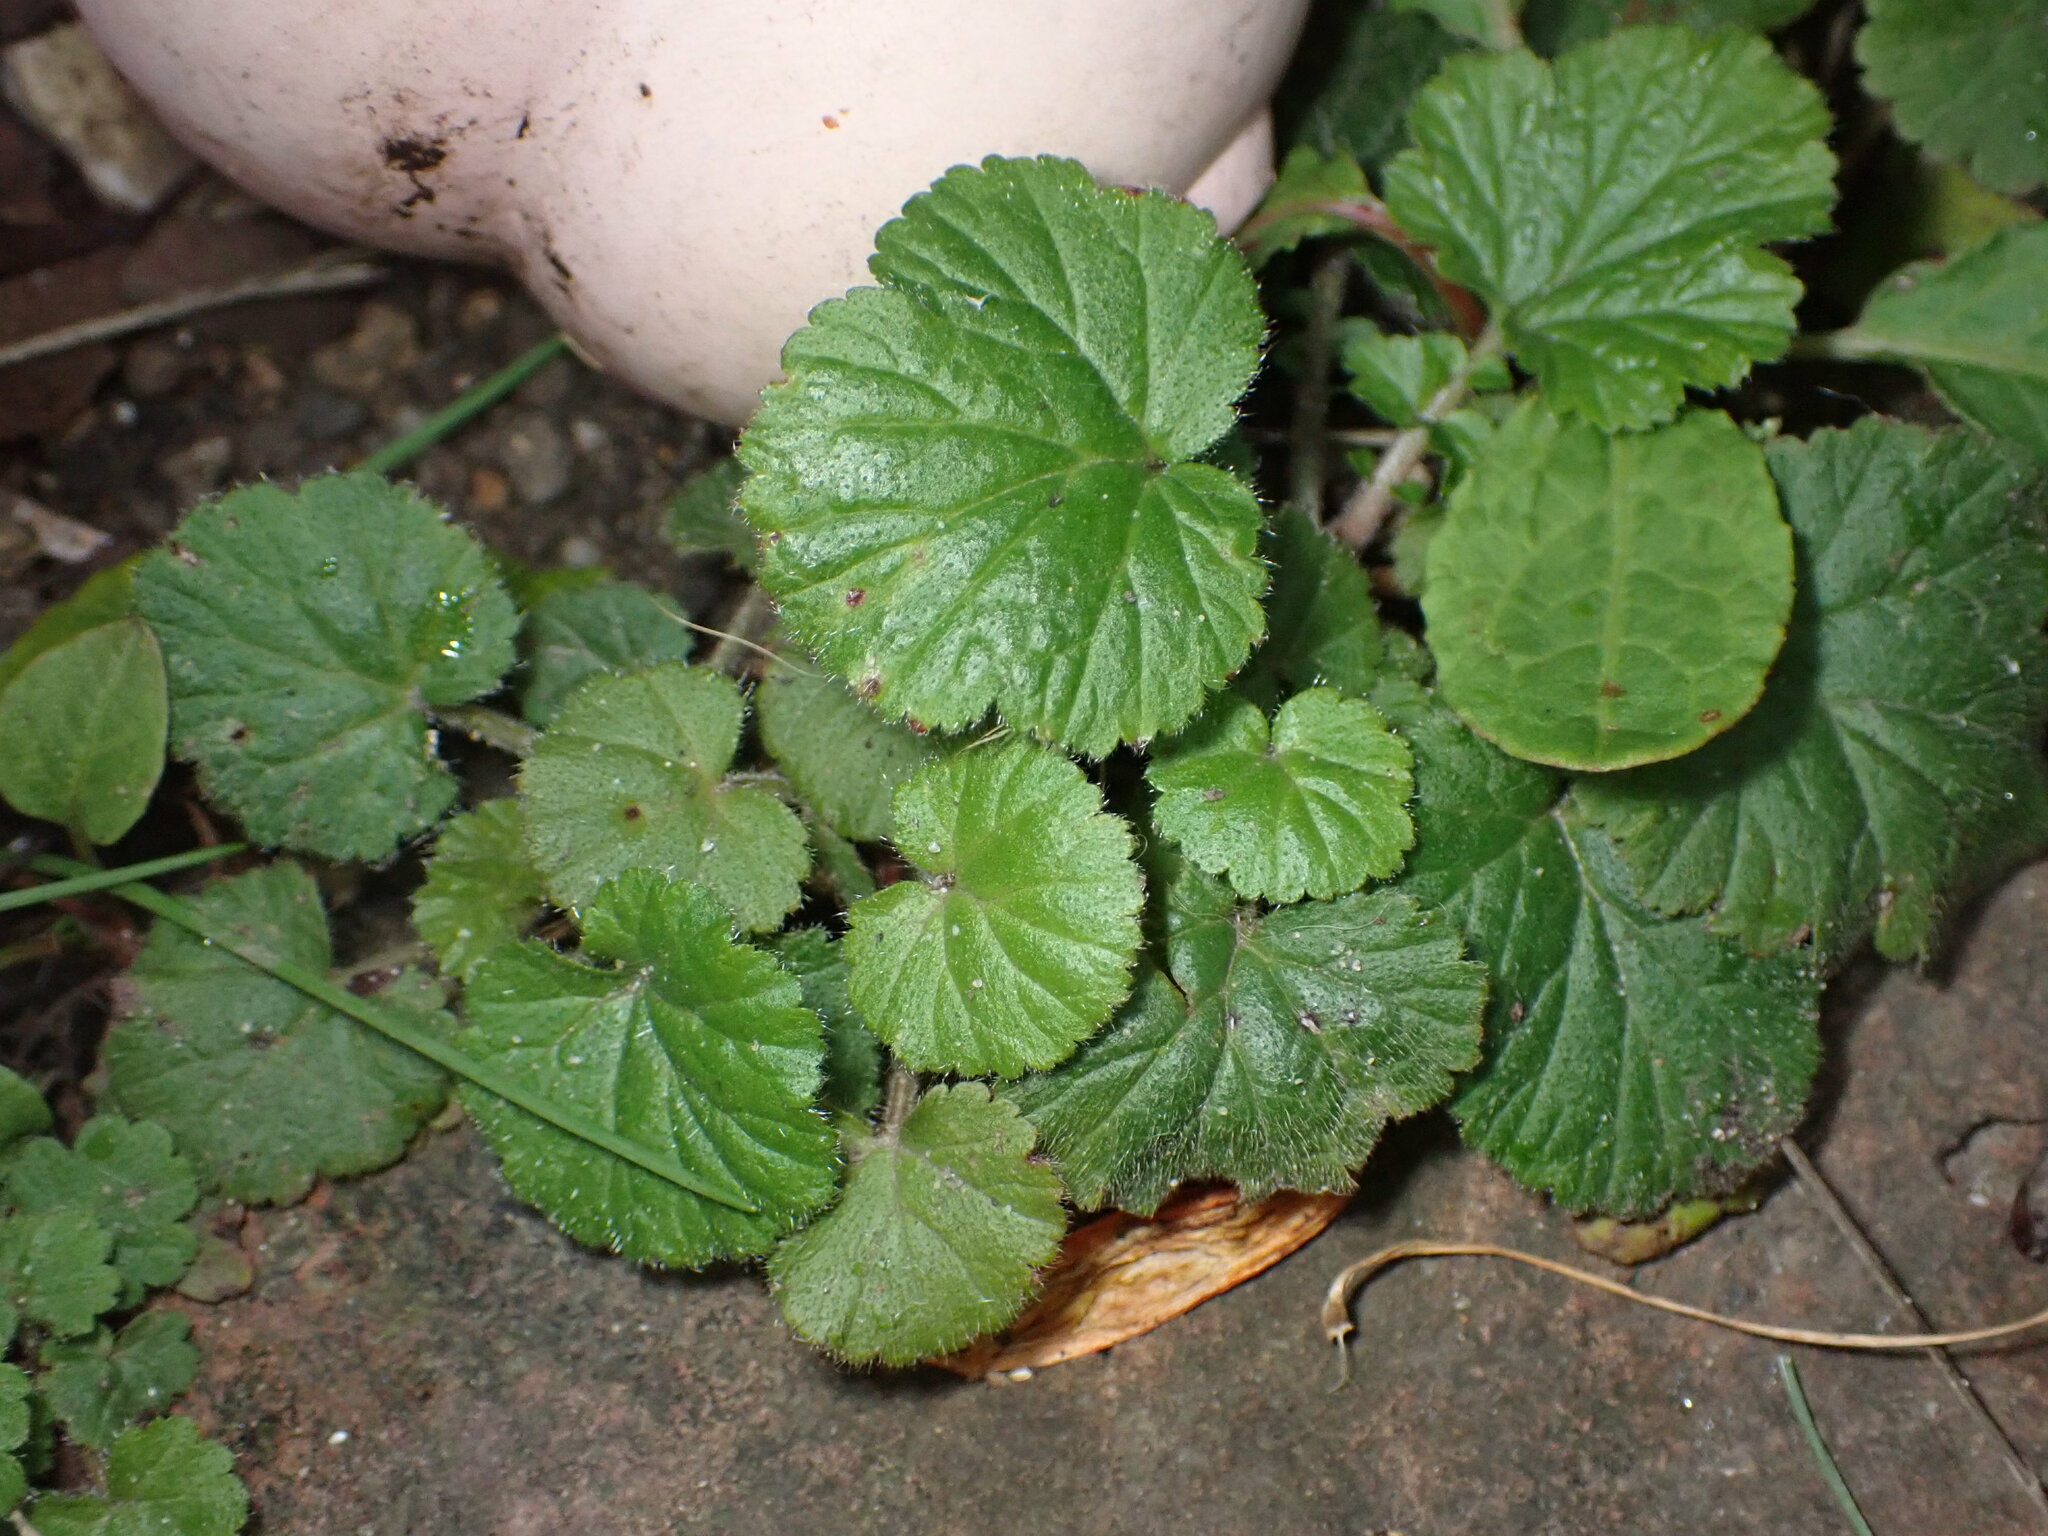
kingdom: Plantae
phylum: Tracheophyta
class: Magnoliopsida
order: Rosales
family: Rosaceae
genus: Geum
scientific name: Geum urbanum
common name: Wood avens
